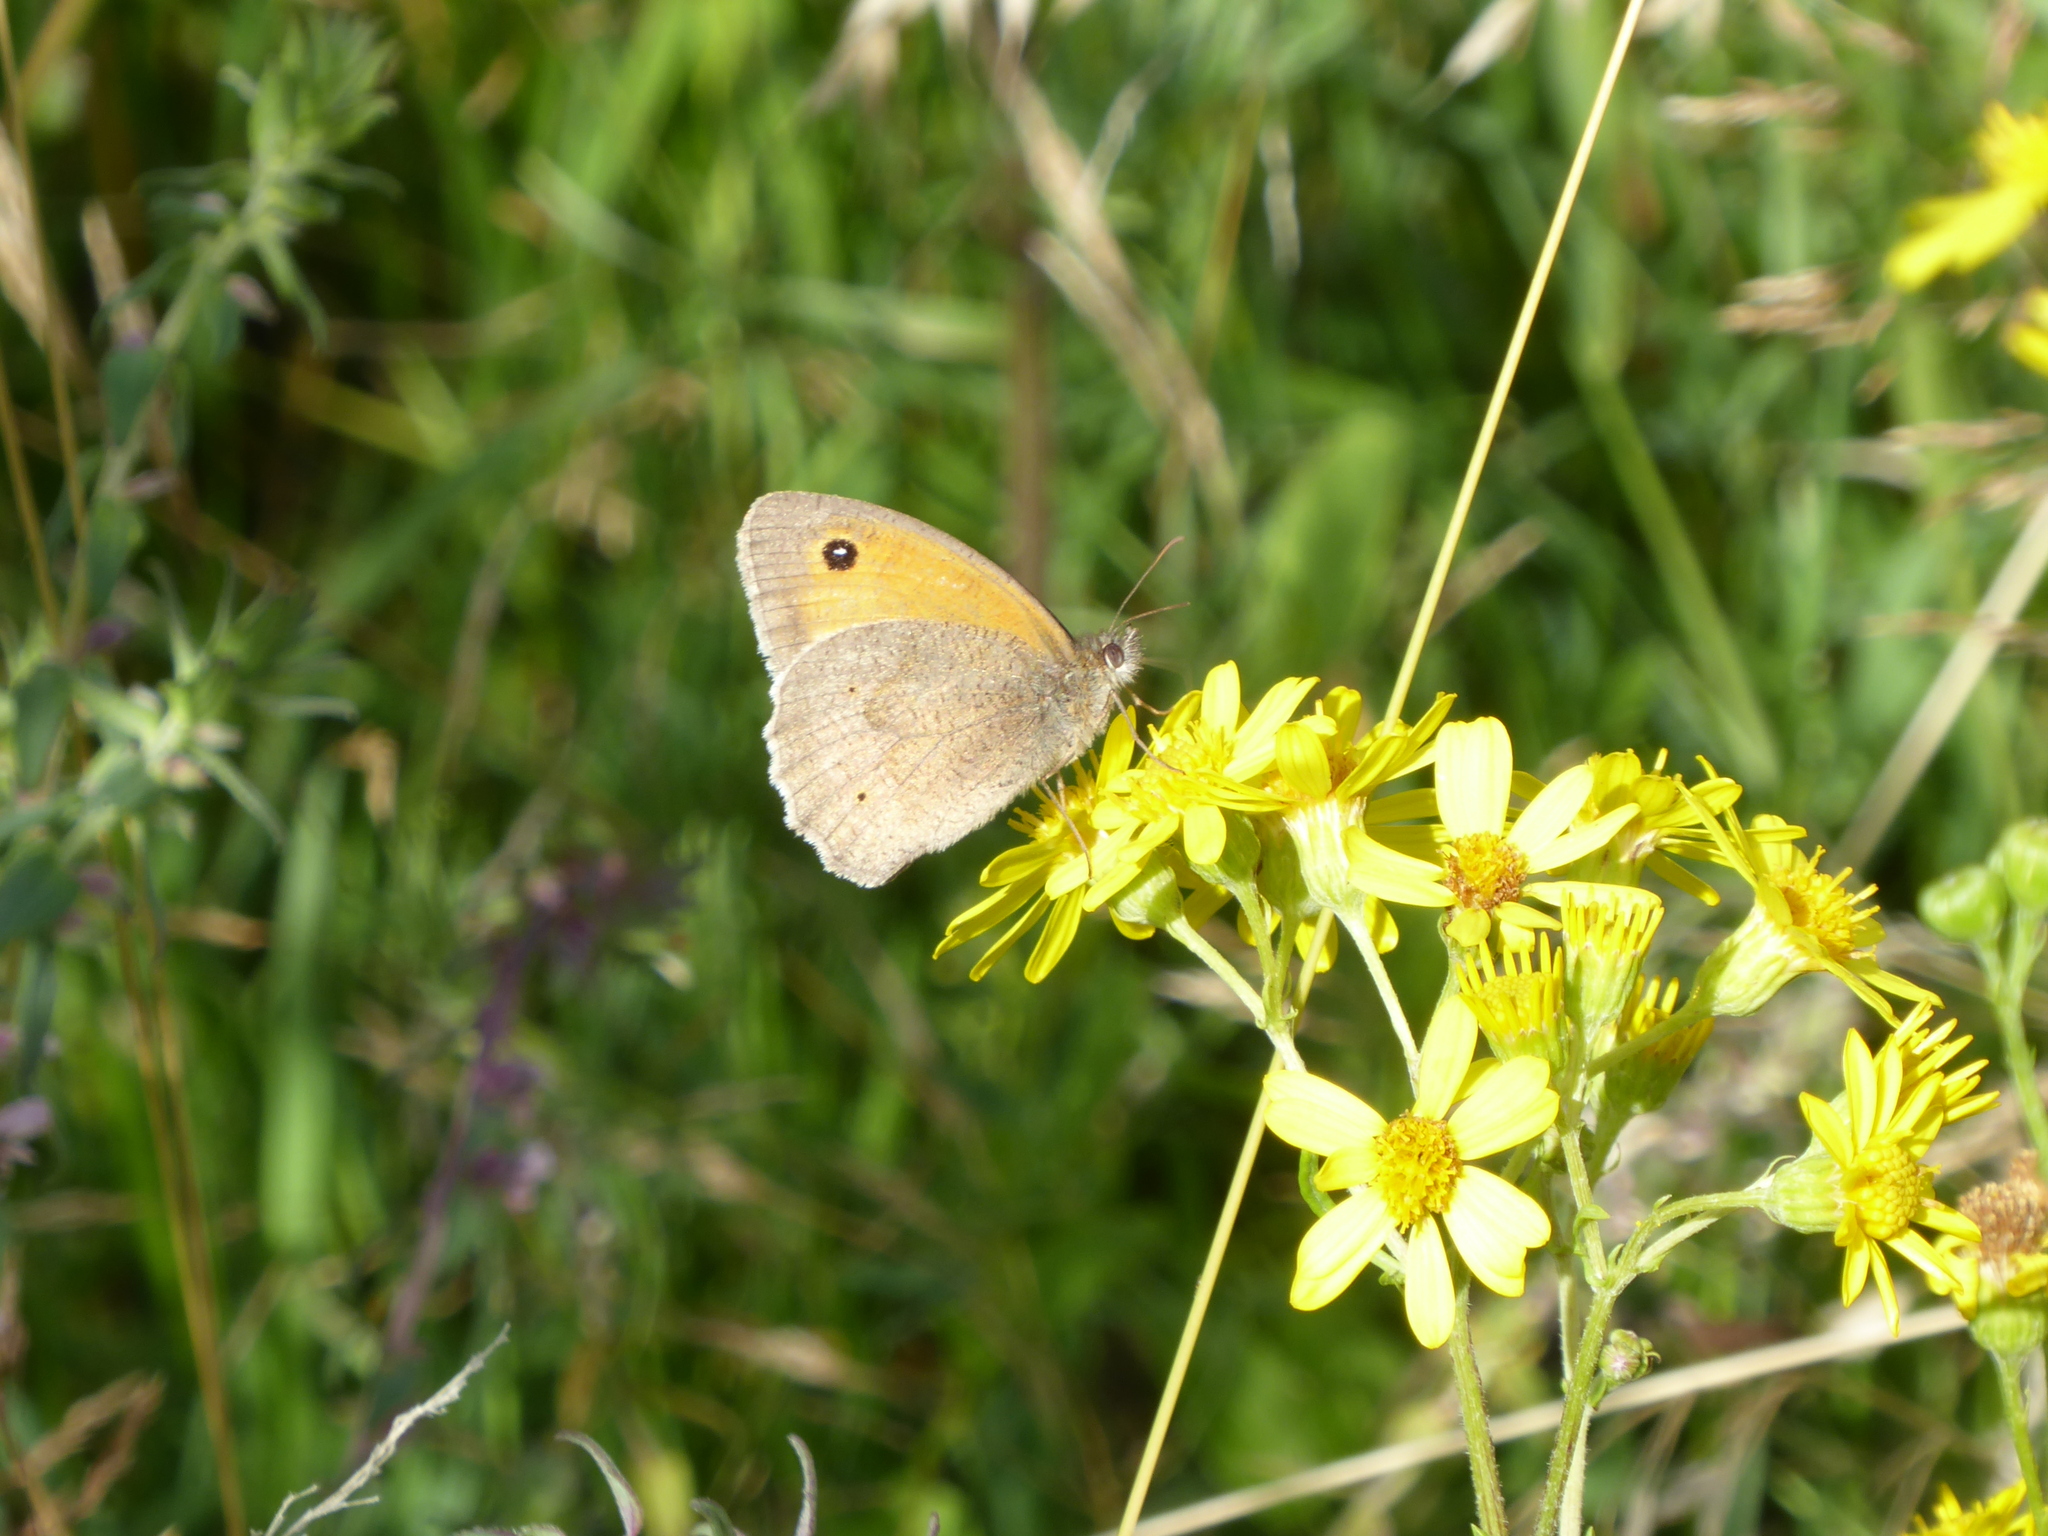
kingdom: Animalia
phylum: Arthropoda
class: Insecta
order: Lepidoptera
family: Nymphalidae
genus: Maniola
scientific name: Maniola jurtina
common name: Meadow brown
